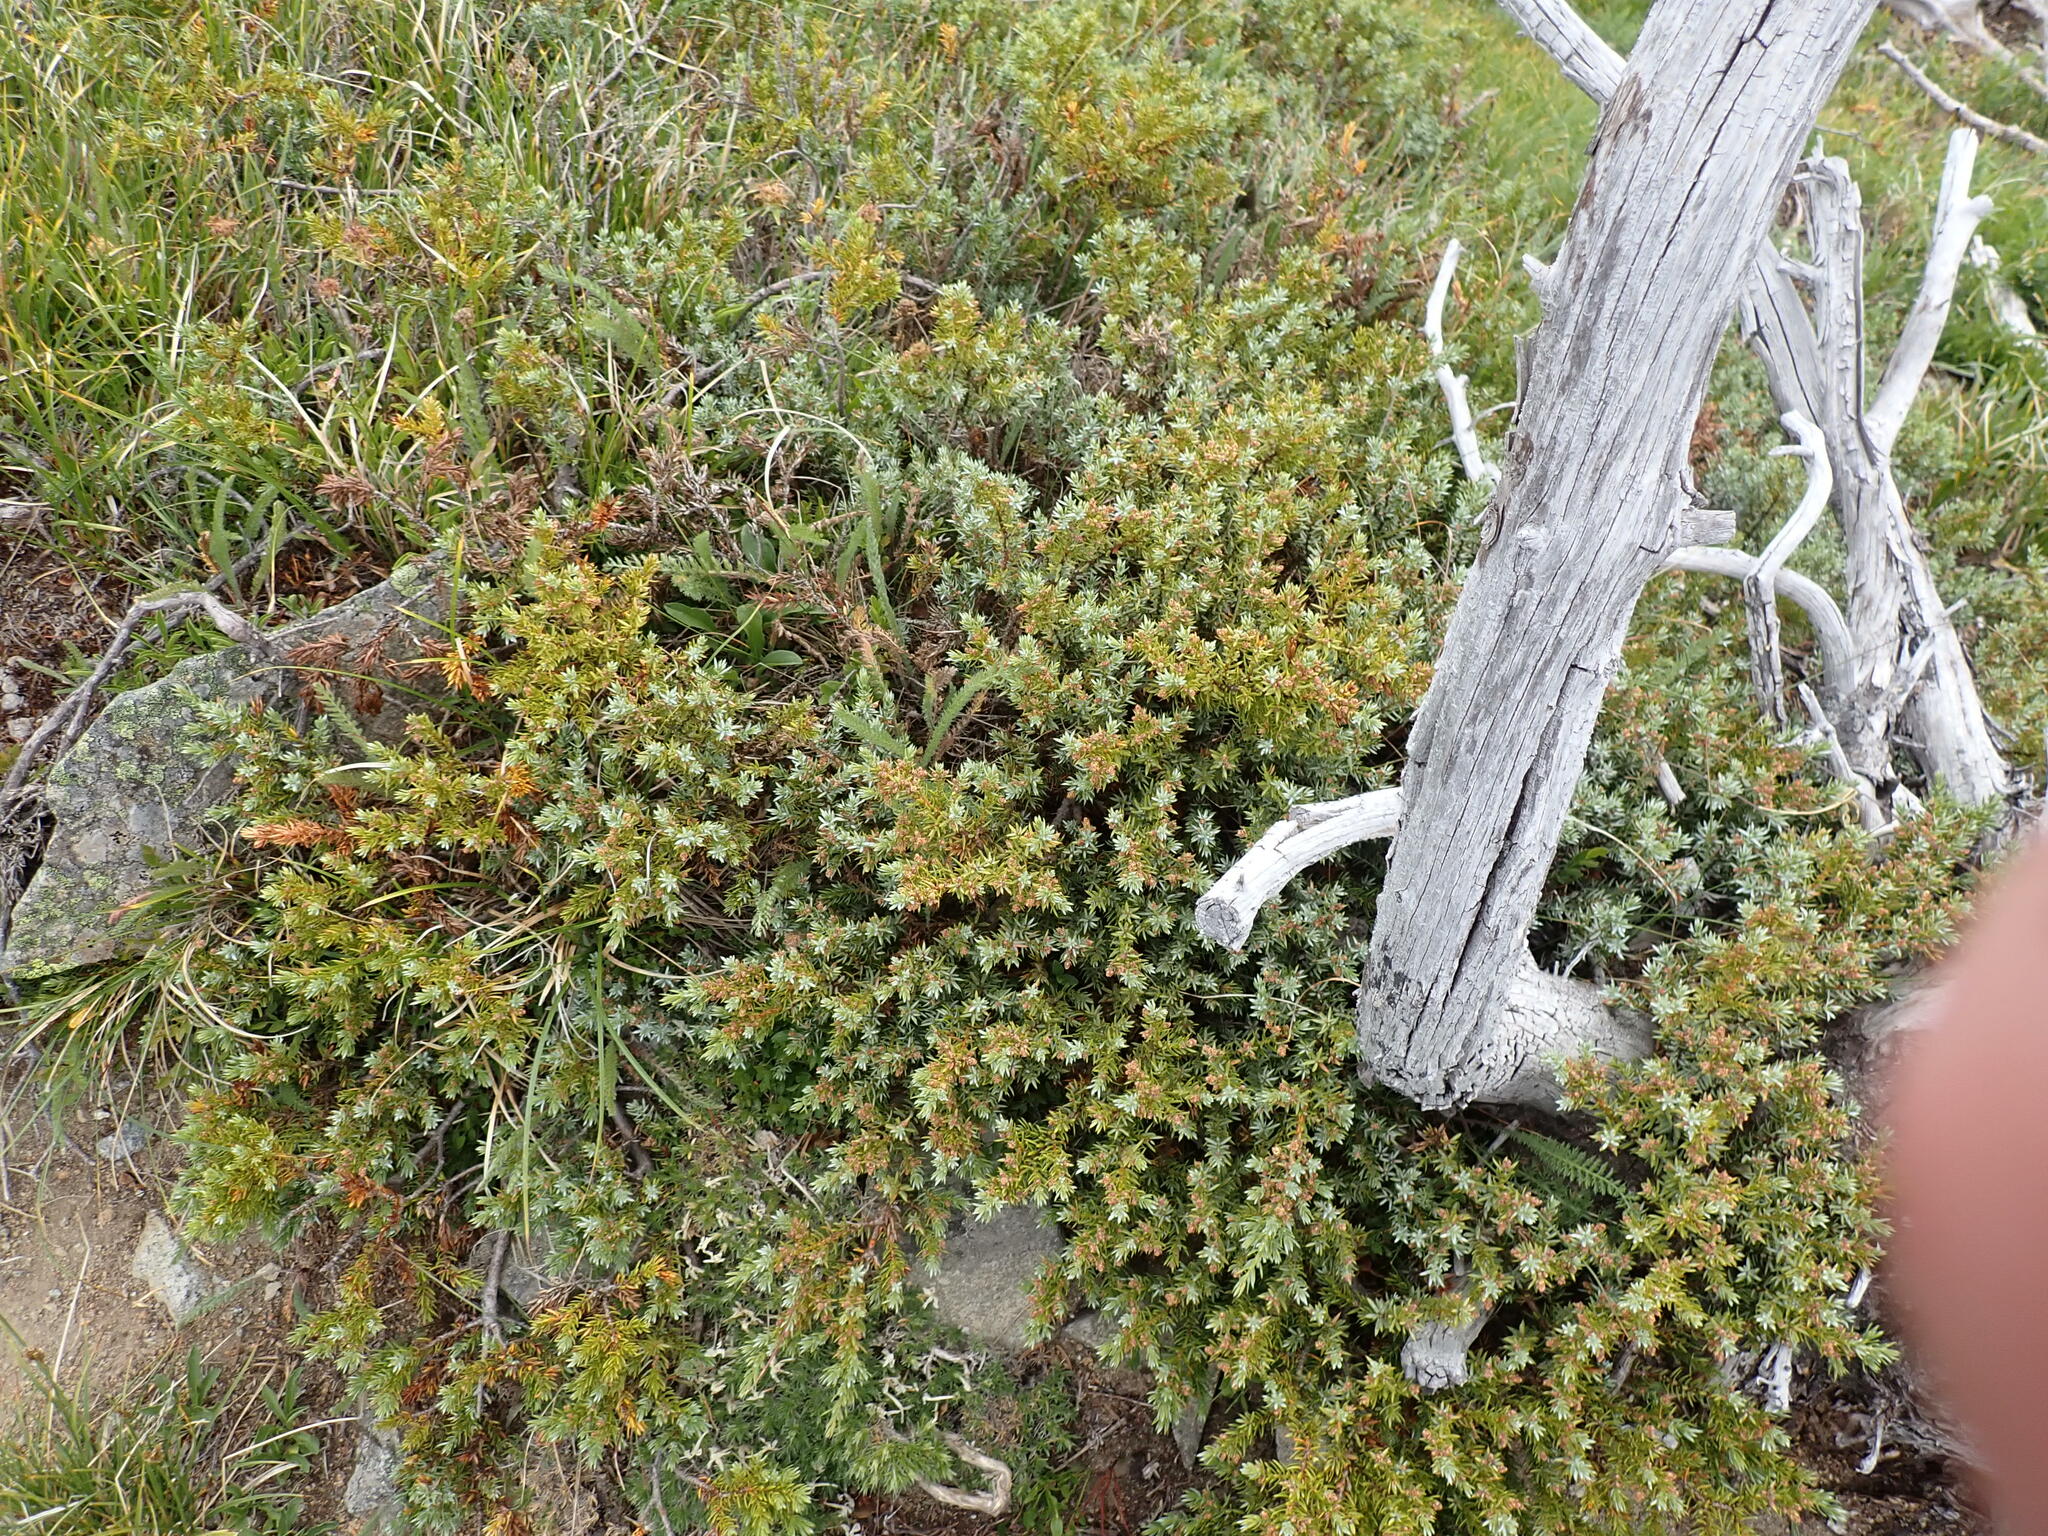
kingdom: Plantae
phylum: Tracheophyta
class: Pinopsida
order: Pinales
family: Cupressaceae
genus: Juniperus
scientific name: Juniperus communis
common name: Common juniper
